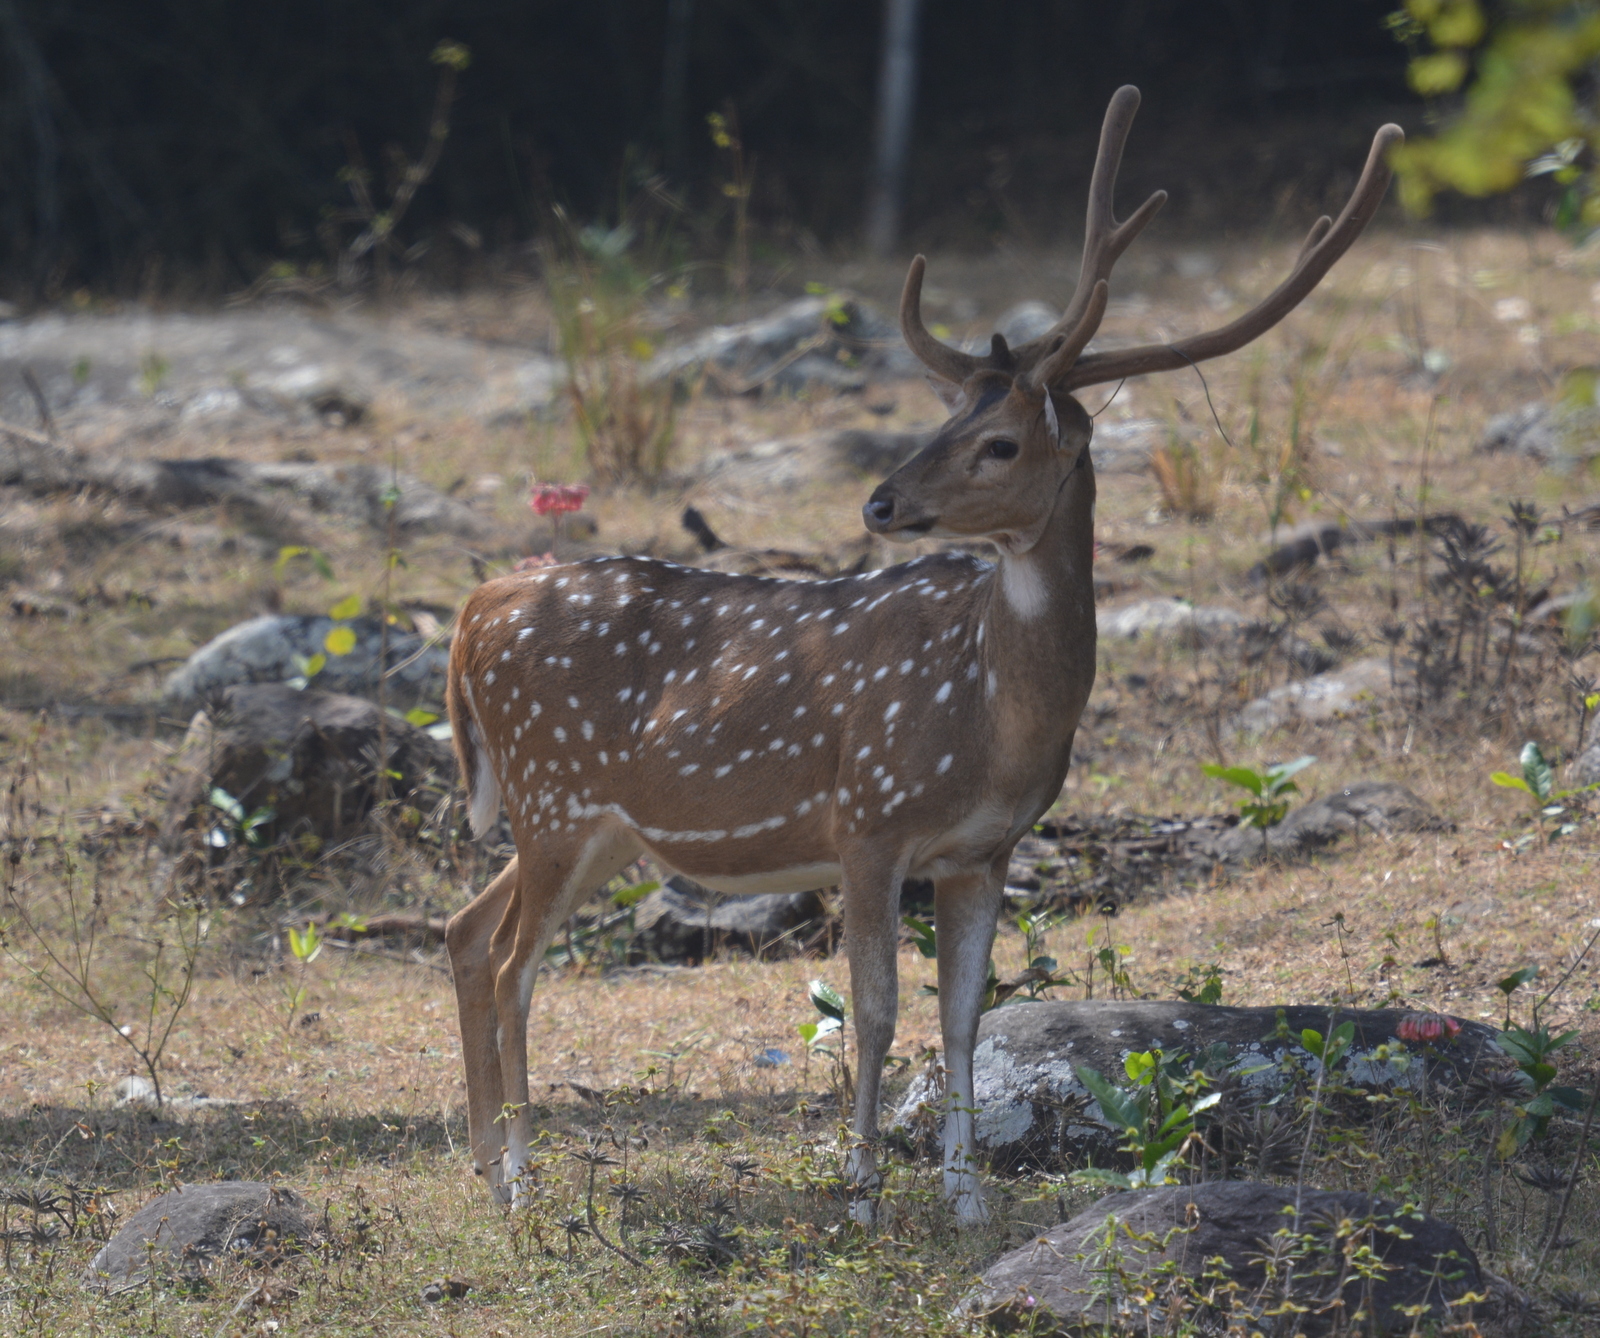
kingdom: Animalia
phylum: Chordata
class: Mammalia
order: Artiodactyla
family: Cervidae
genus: Axis
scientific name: Axis axis
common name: Chital
